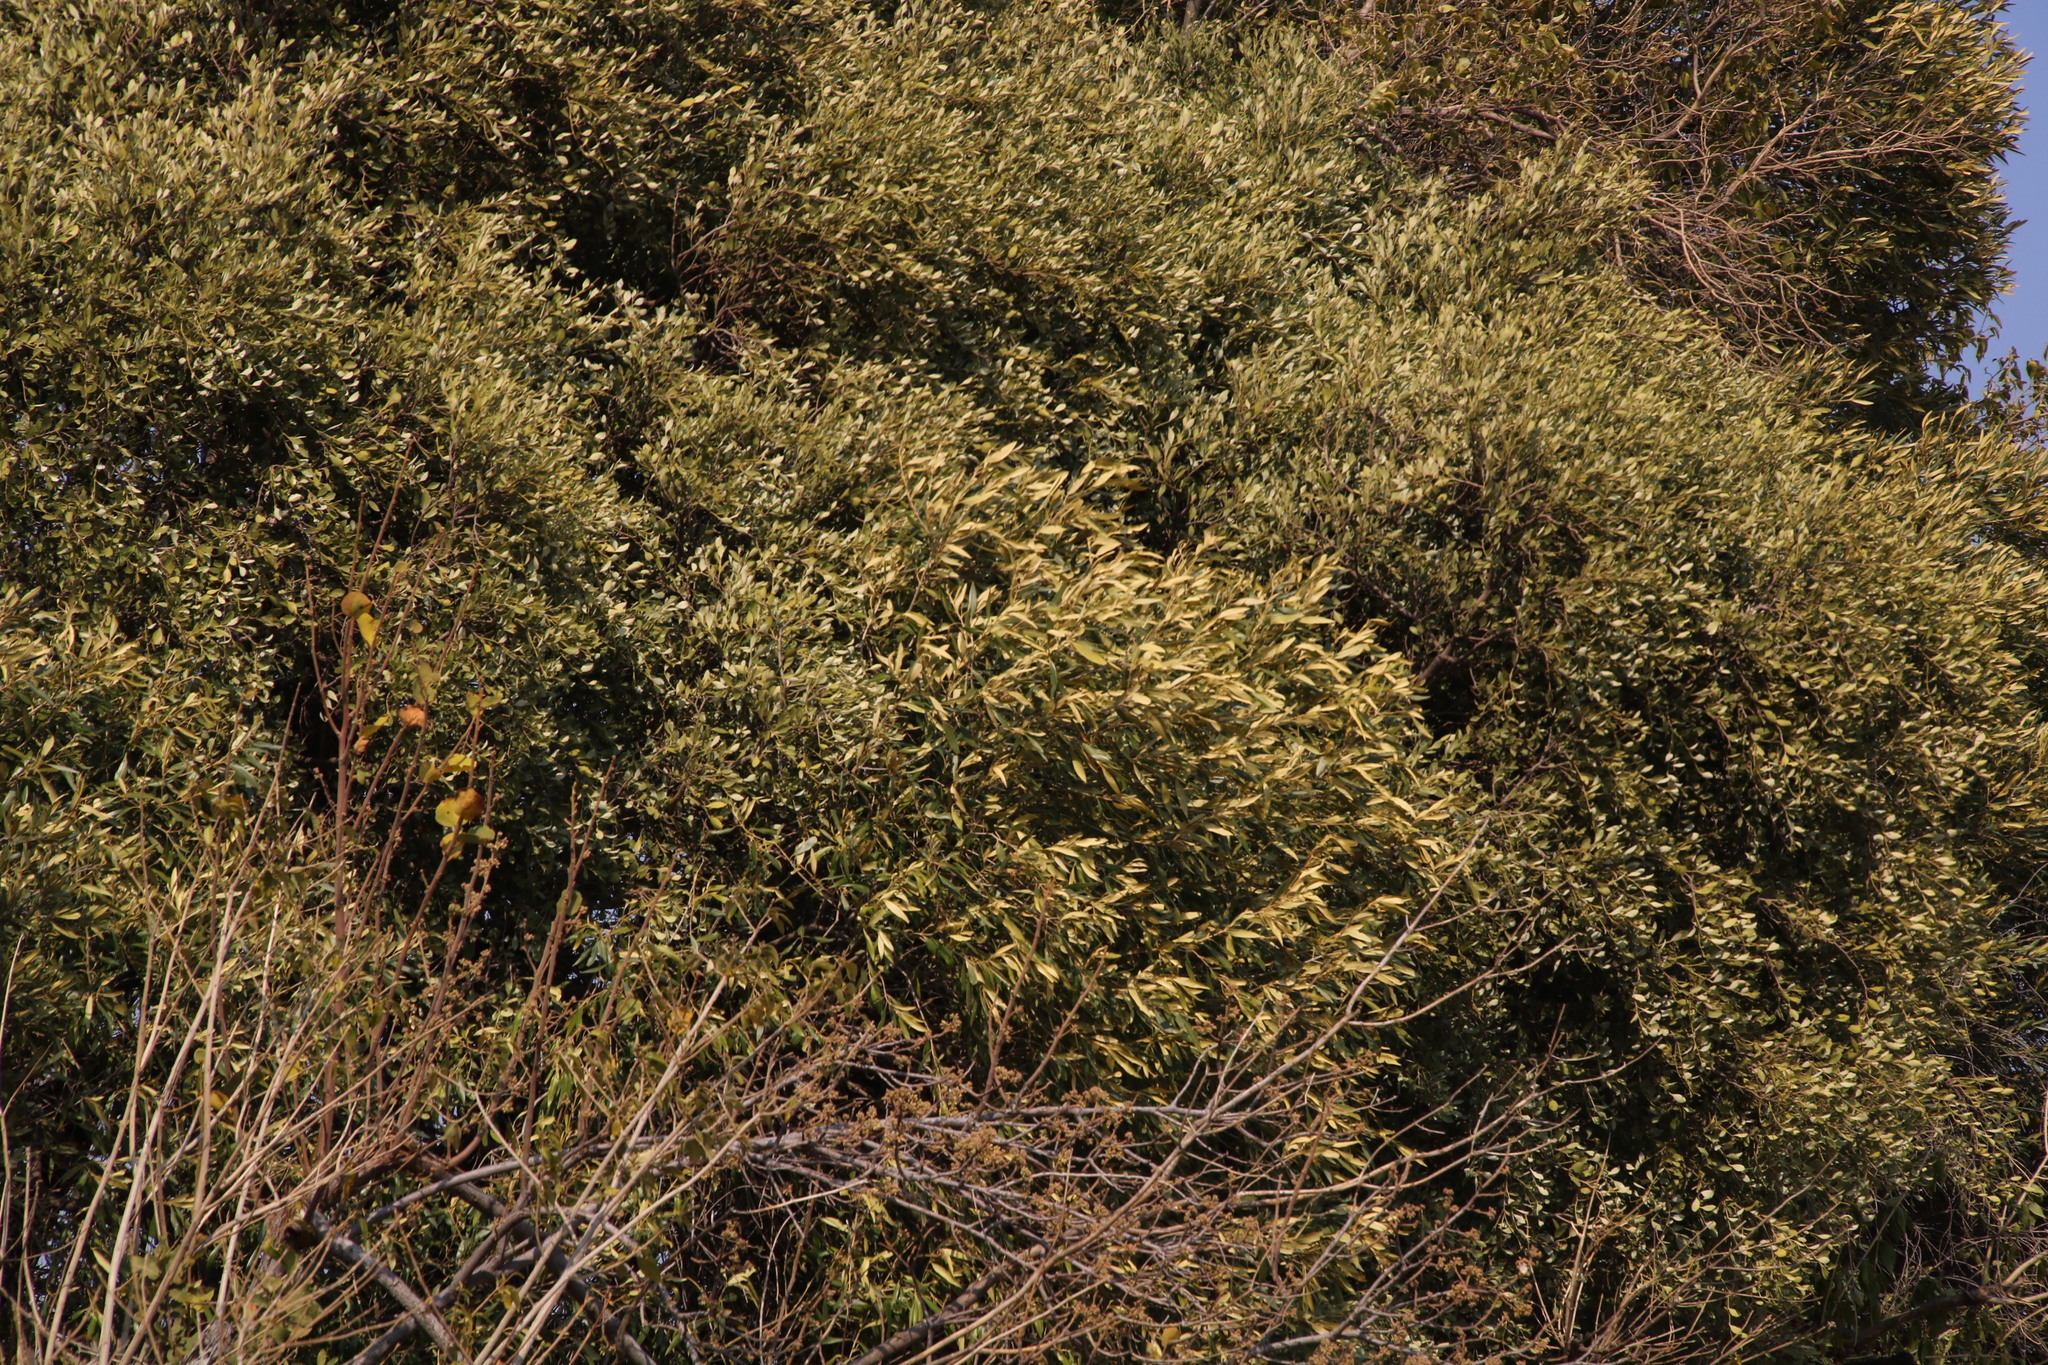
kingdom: Plantae
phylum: Tracheophyta
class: Magnoliopsida
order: Lamiales
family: Oleaceae
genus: Olea
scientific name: Olea europaea
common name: Olive
